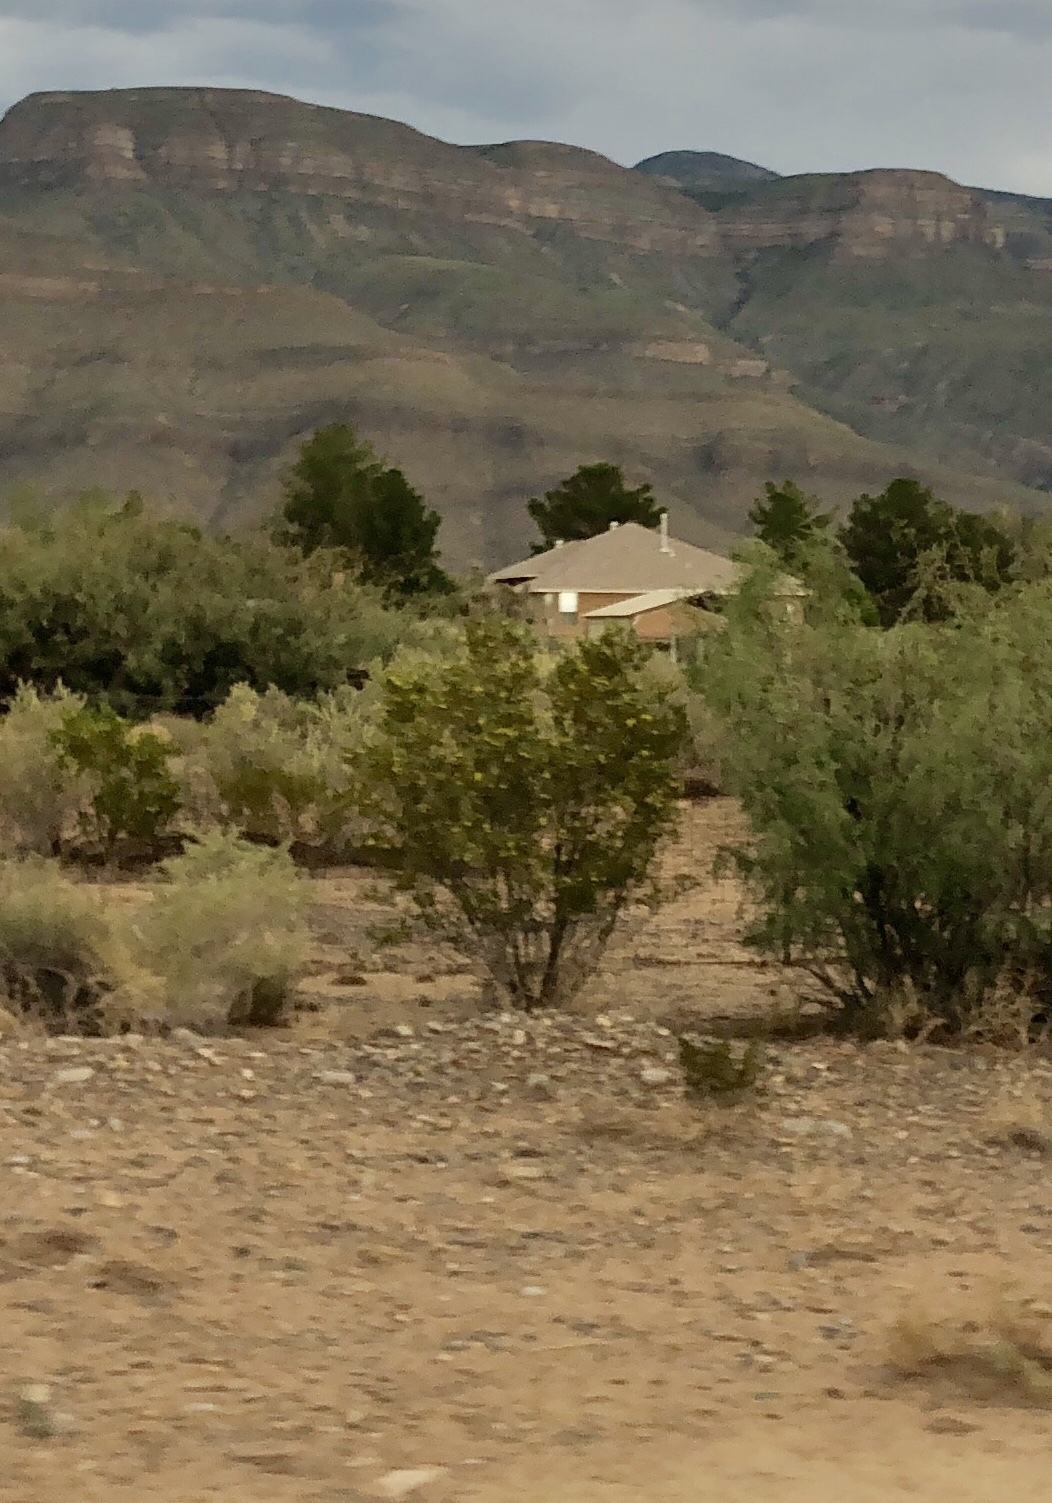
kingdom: Plantae
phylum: Tracheophyta
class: Magnoliopsida
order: Zygophyllales
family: Zygophyllaceae
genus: Larrea
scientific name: Larrea tridentata
